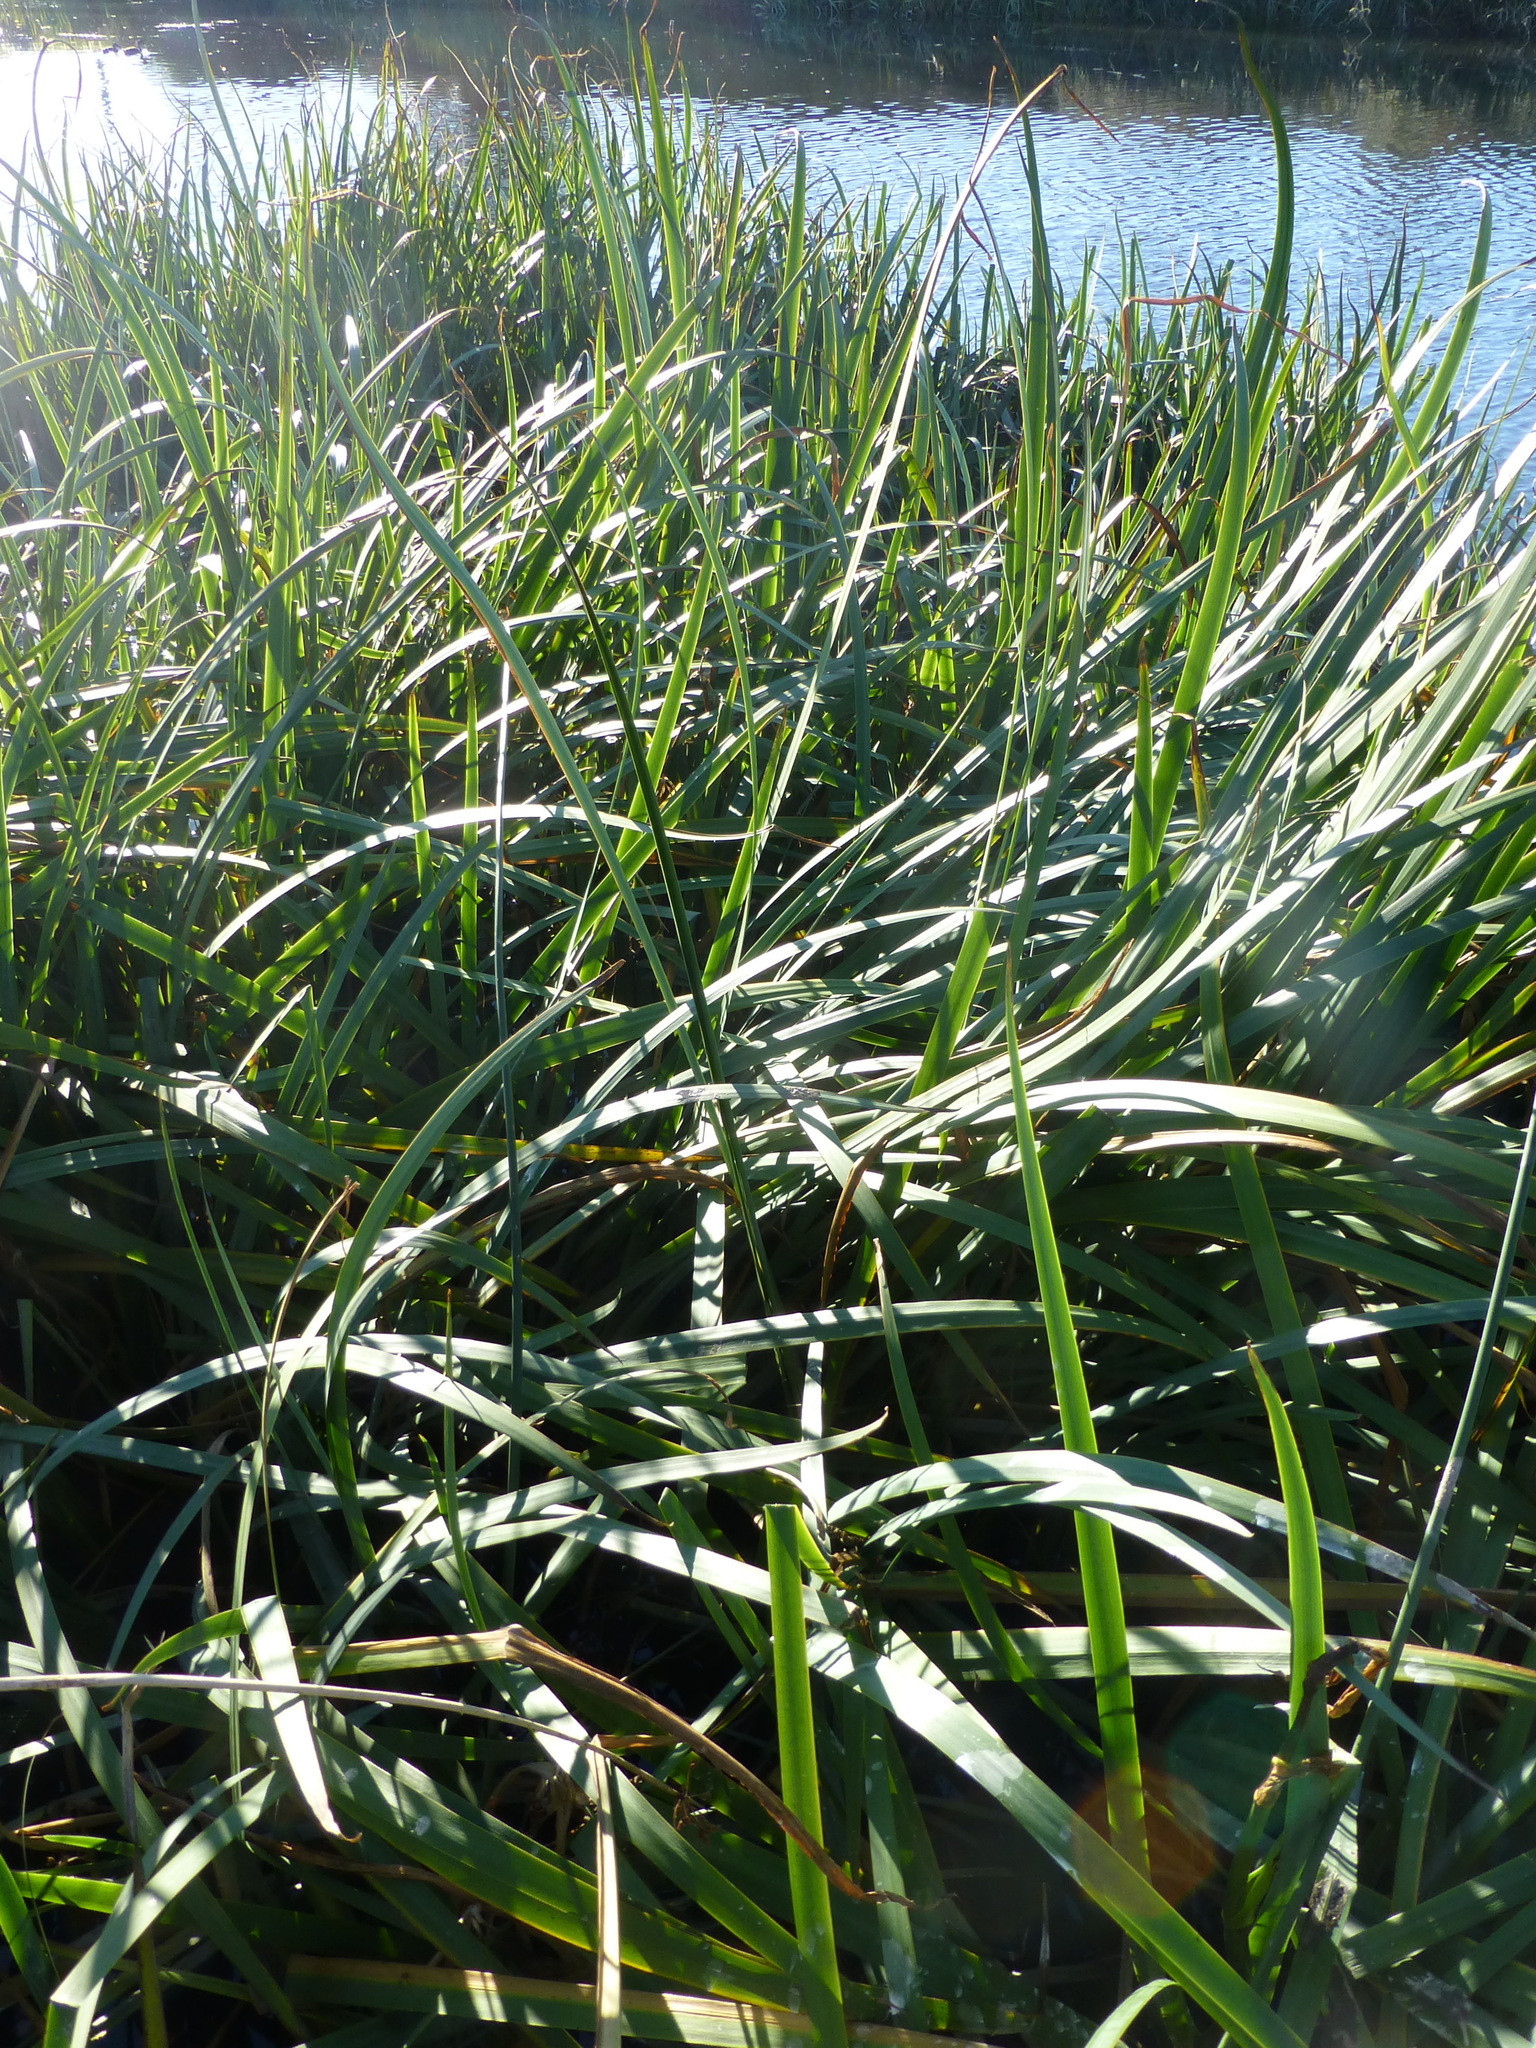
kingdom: Plantae
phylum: Tracheophyta
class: Liliopsida
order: Asparagales
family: Iridaceae
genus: Iris
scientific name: Iris pseudacorus
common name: Yellow flag
